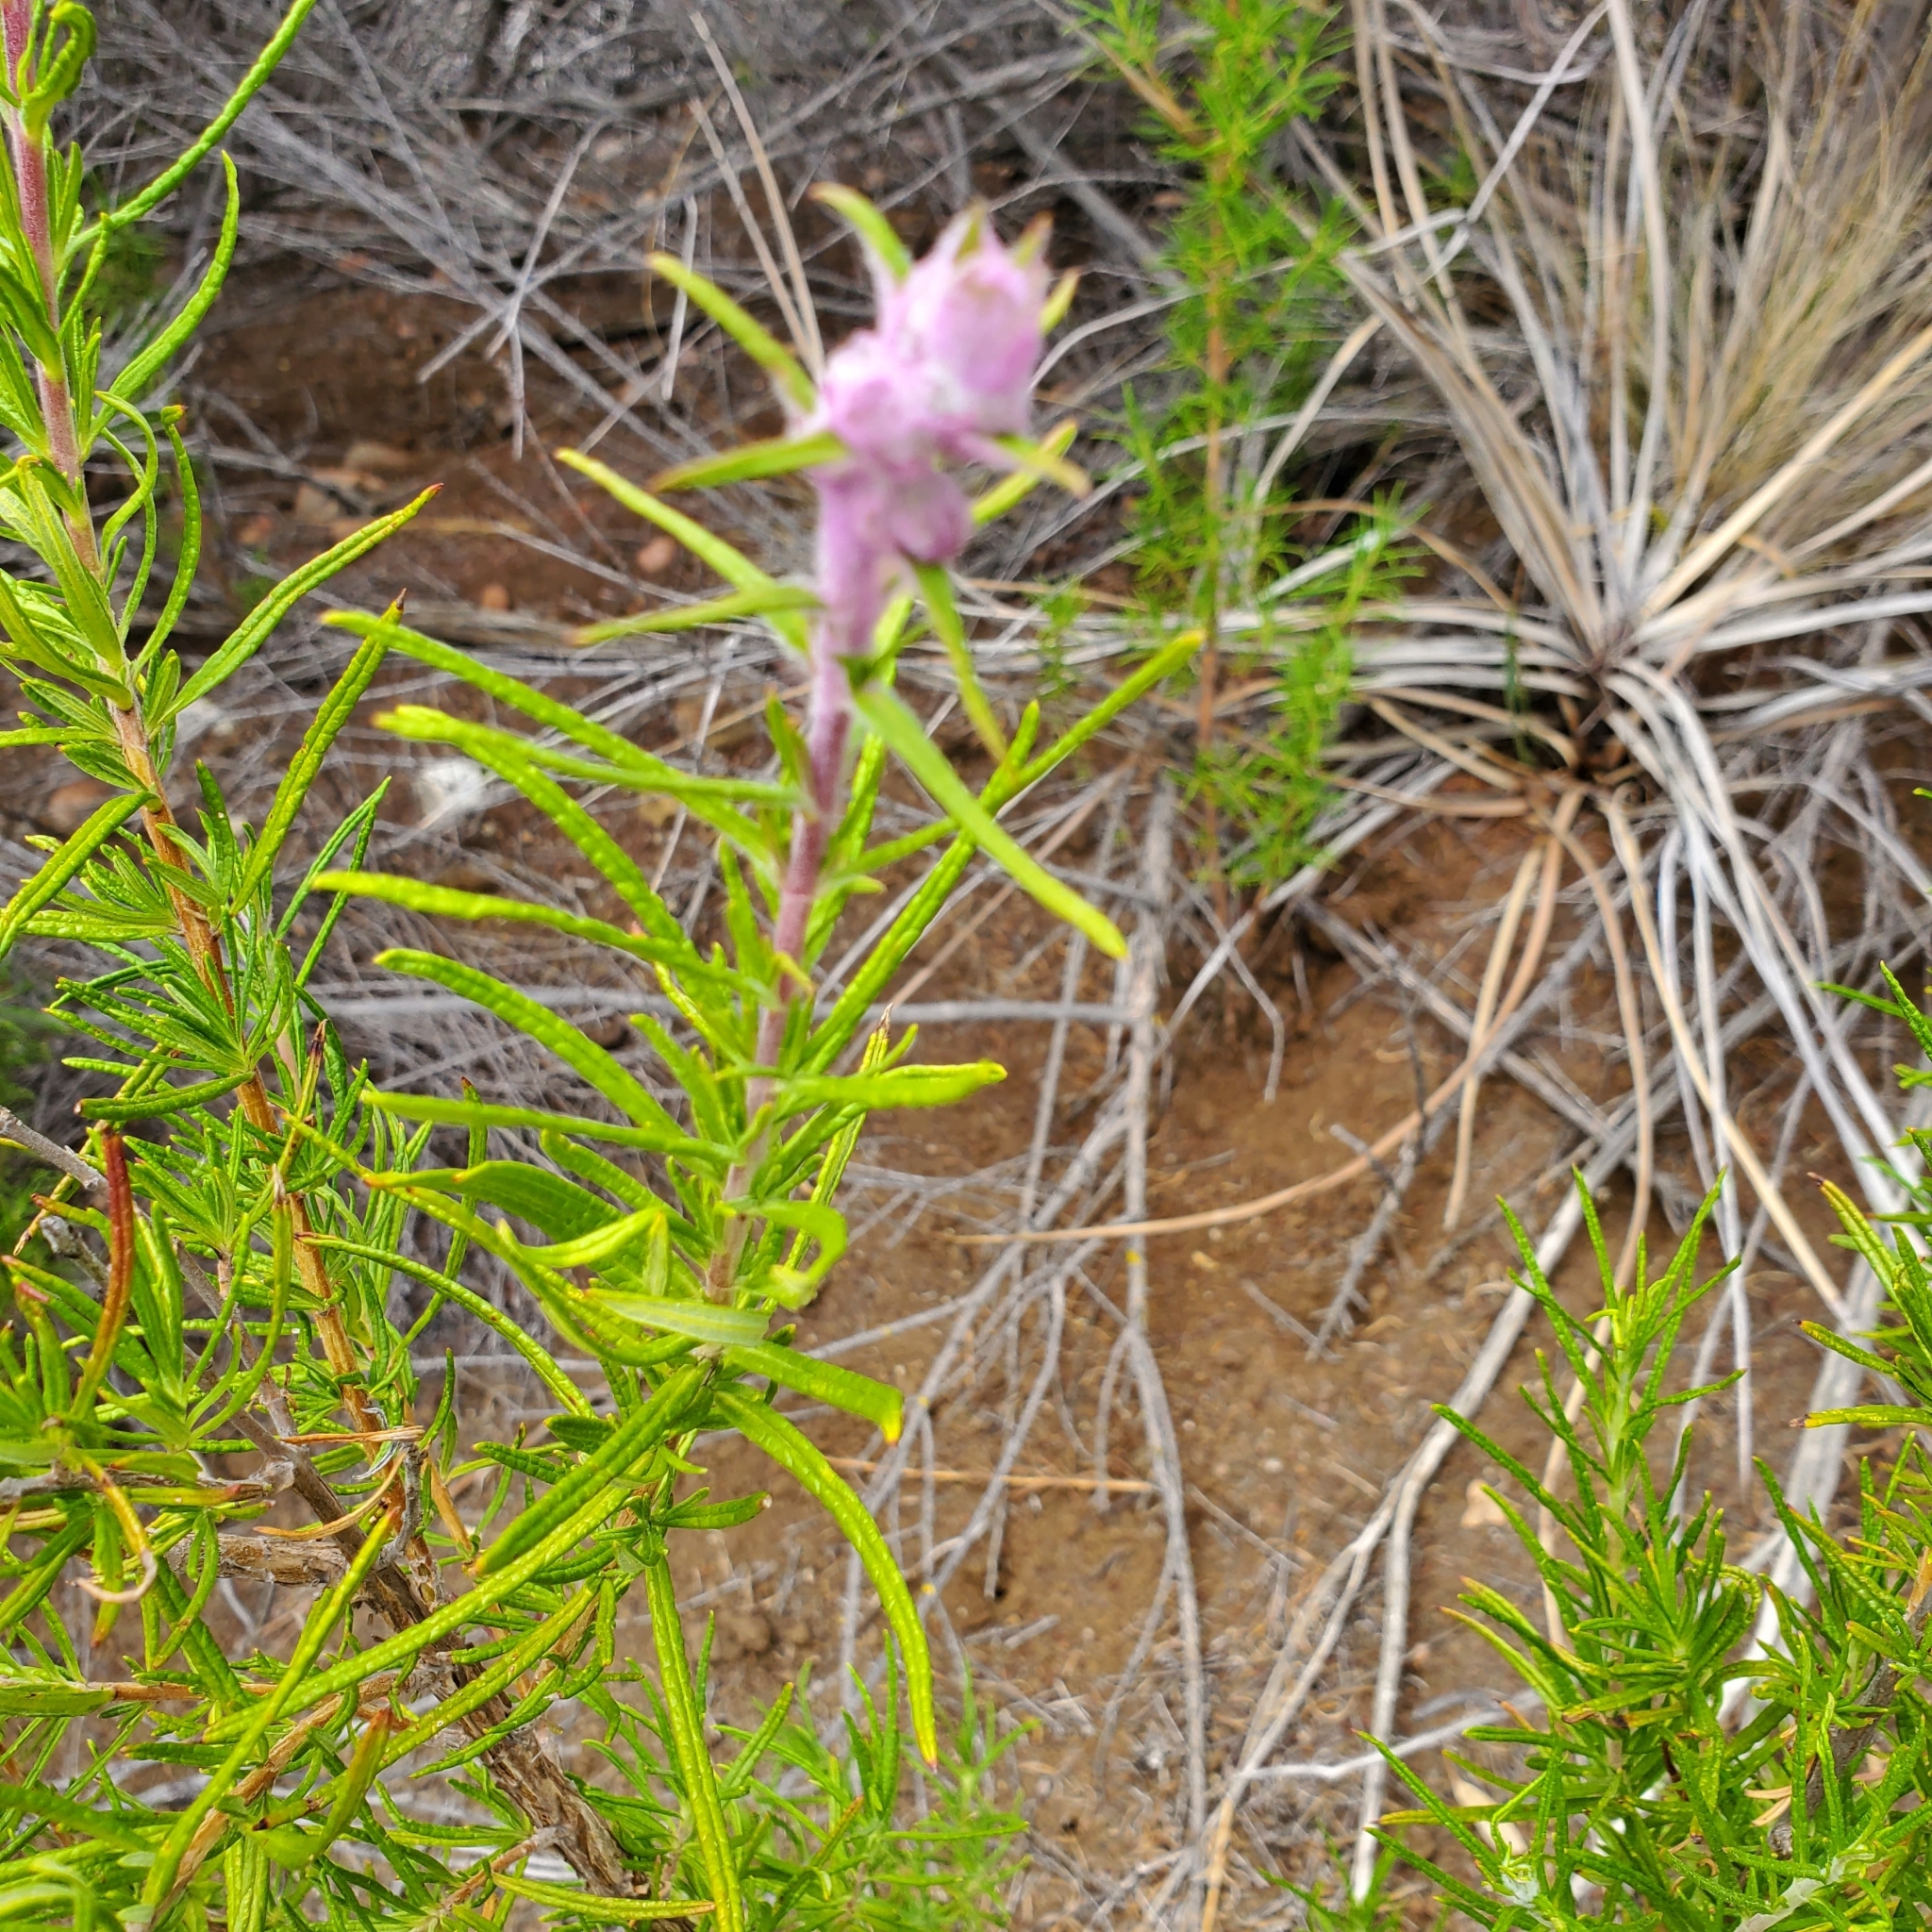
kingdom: Plantae
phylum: Tracheophyta
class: Magnoliopsida
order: Lamiales
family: Lamiaceae
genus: Trichostema
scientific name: Trichostema lanatum
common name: Woolly bluecurls
